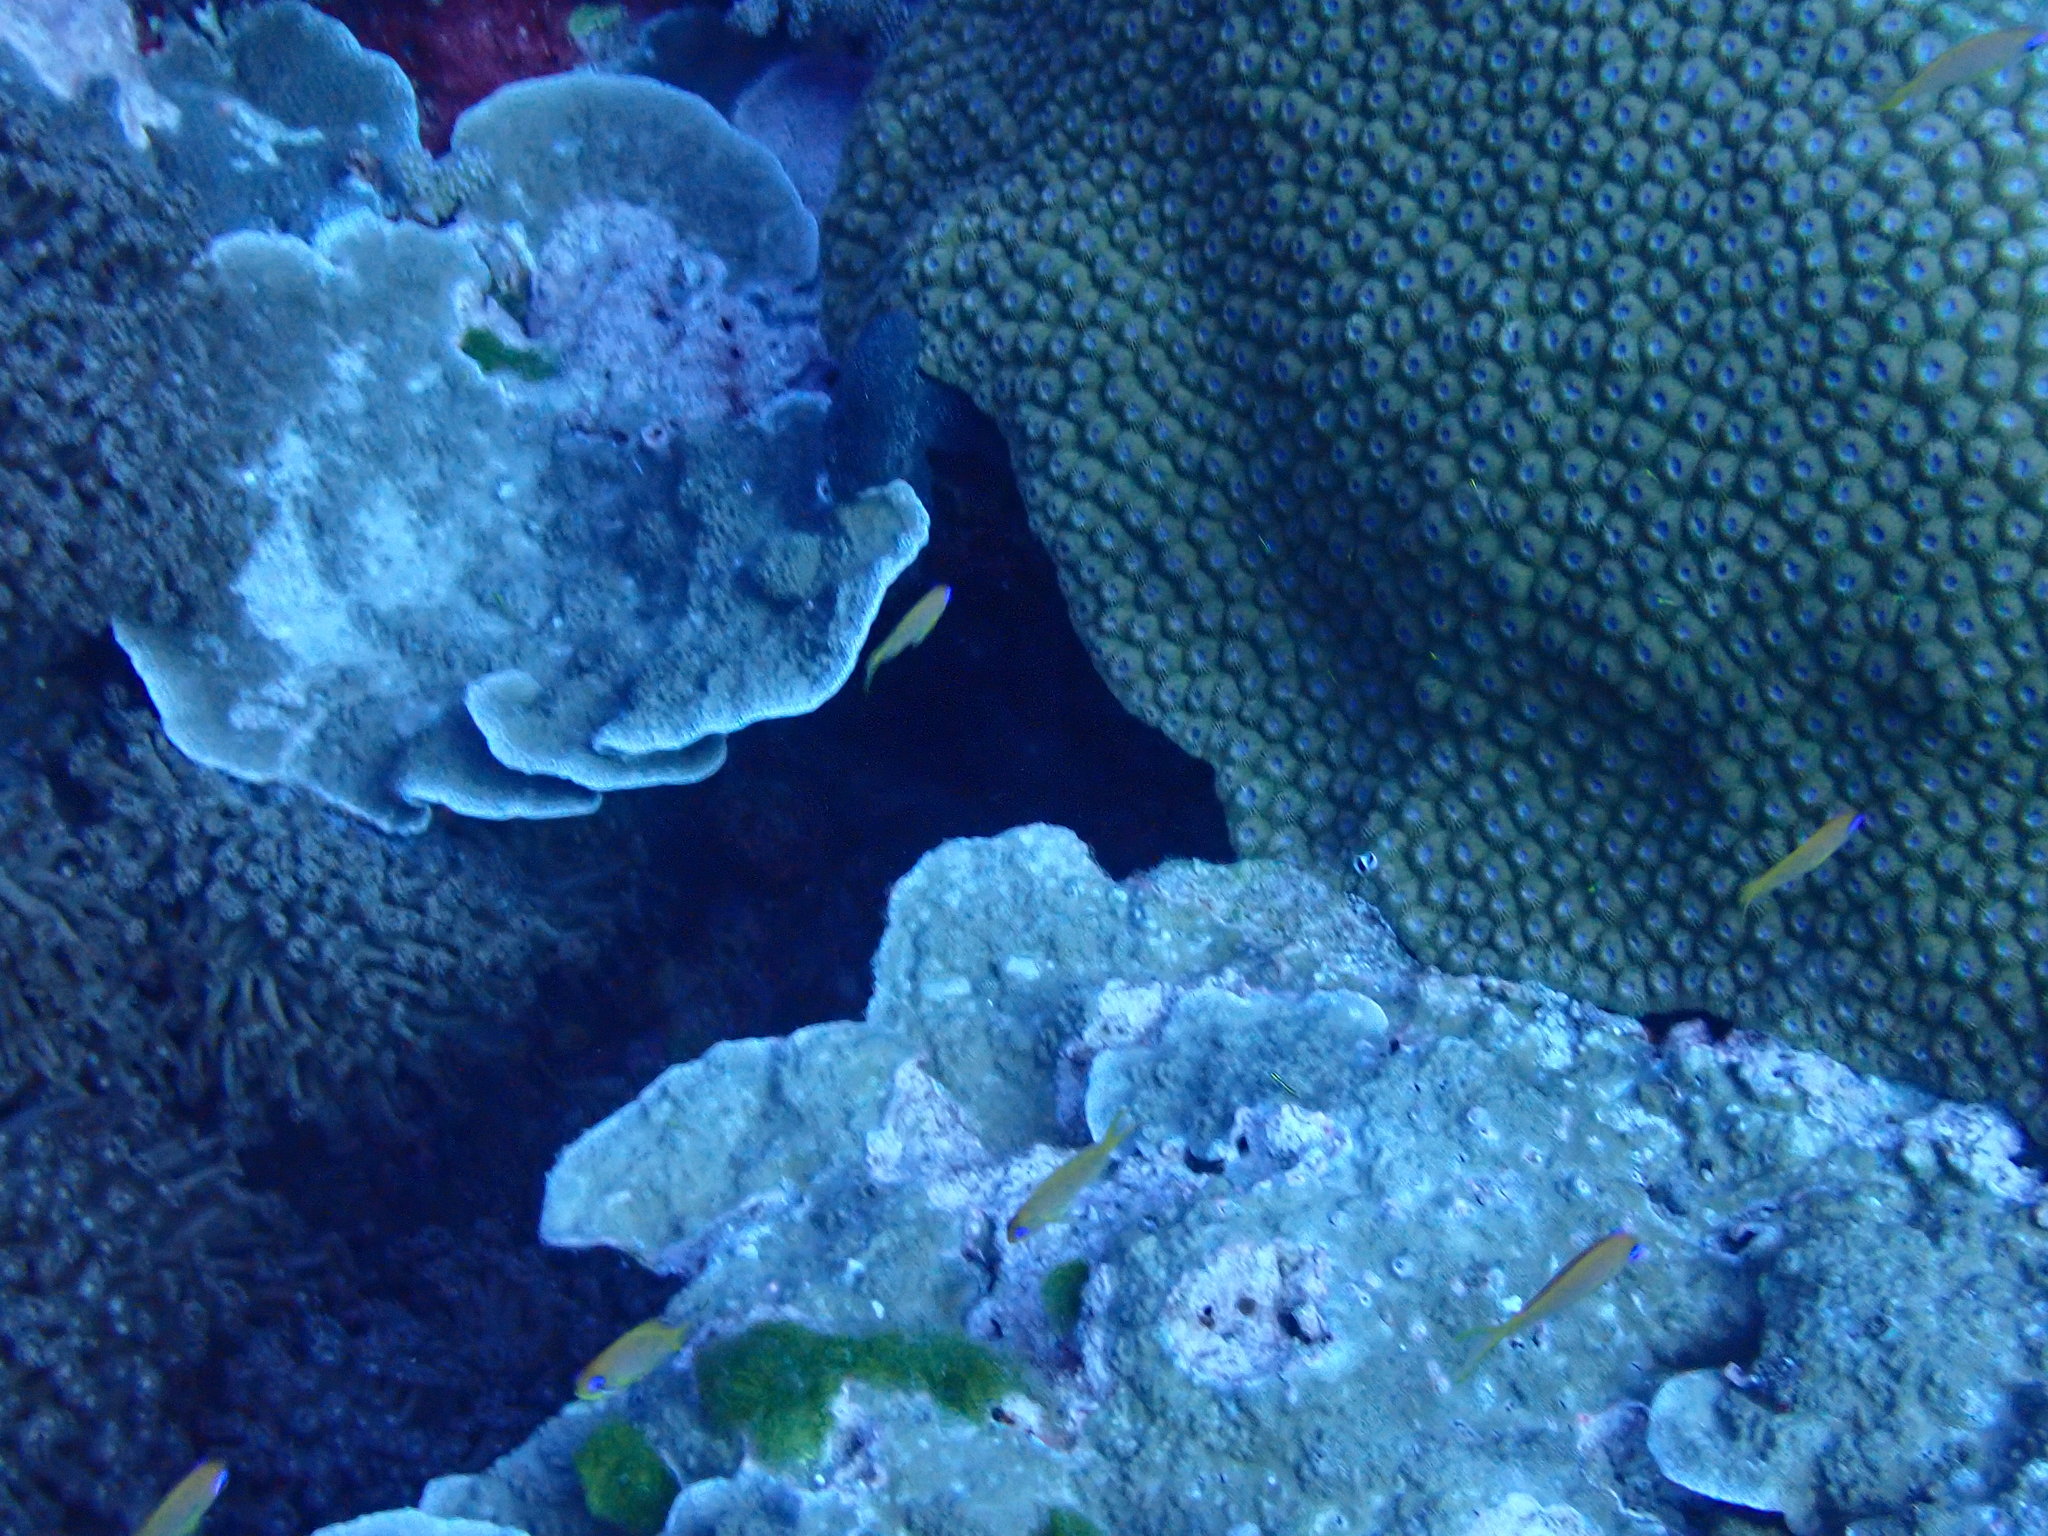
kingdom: Animalia
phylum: Cnidaria
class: Anthozoa
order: Scleractinia
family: Diploastraeidae
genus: Diploastrea
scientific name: Diploastrea heliopora
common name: Double-star coral
